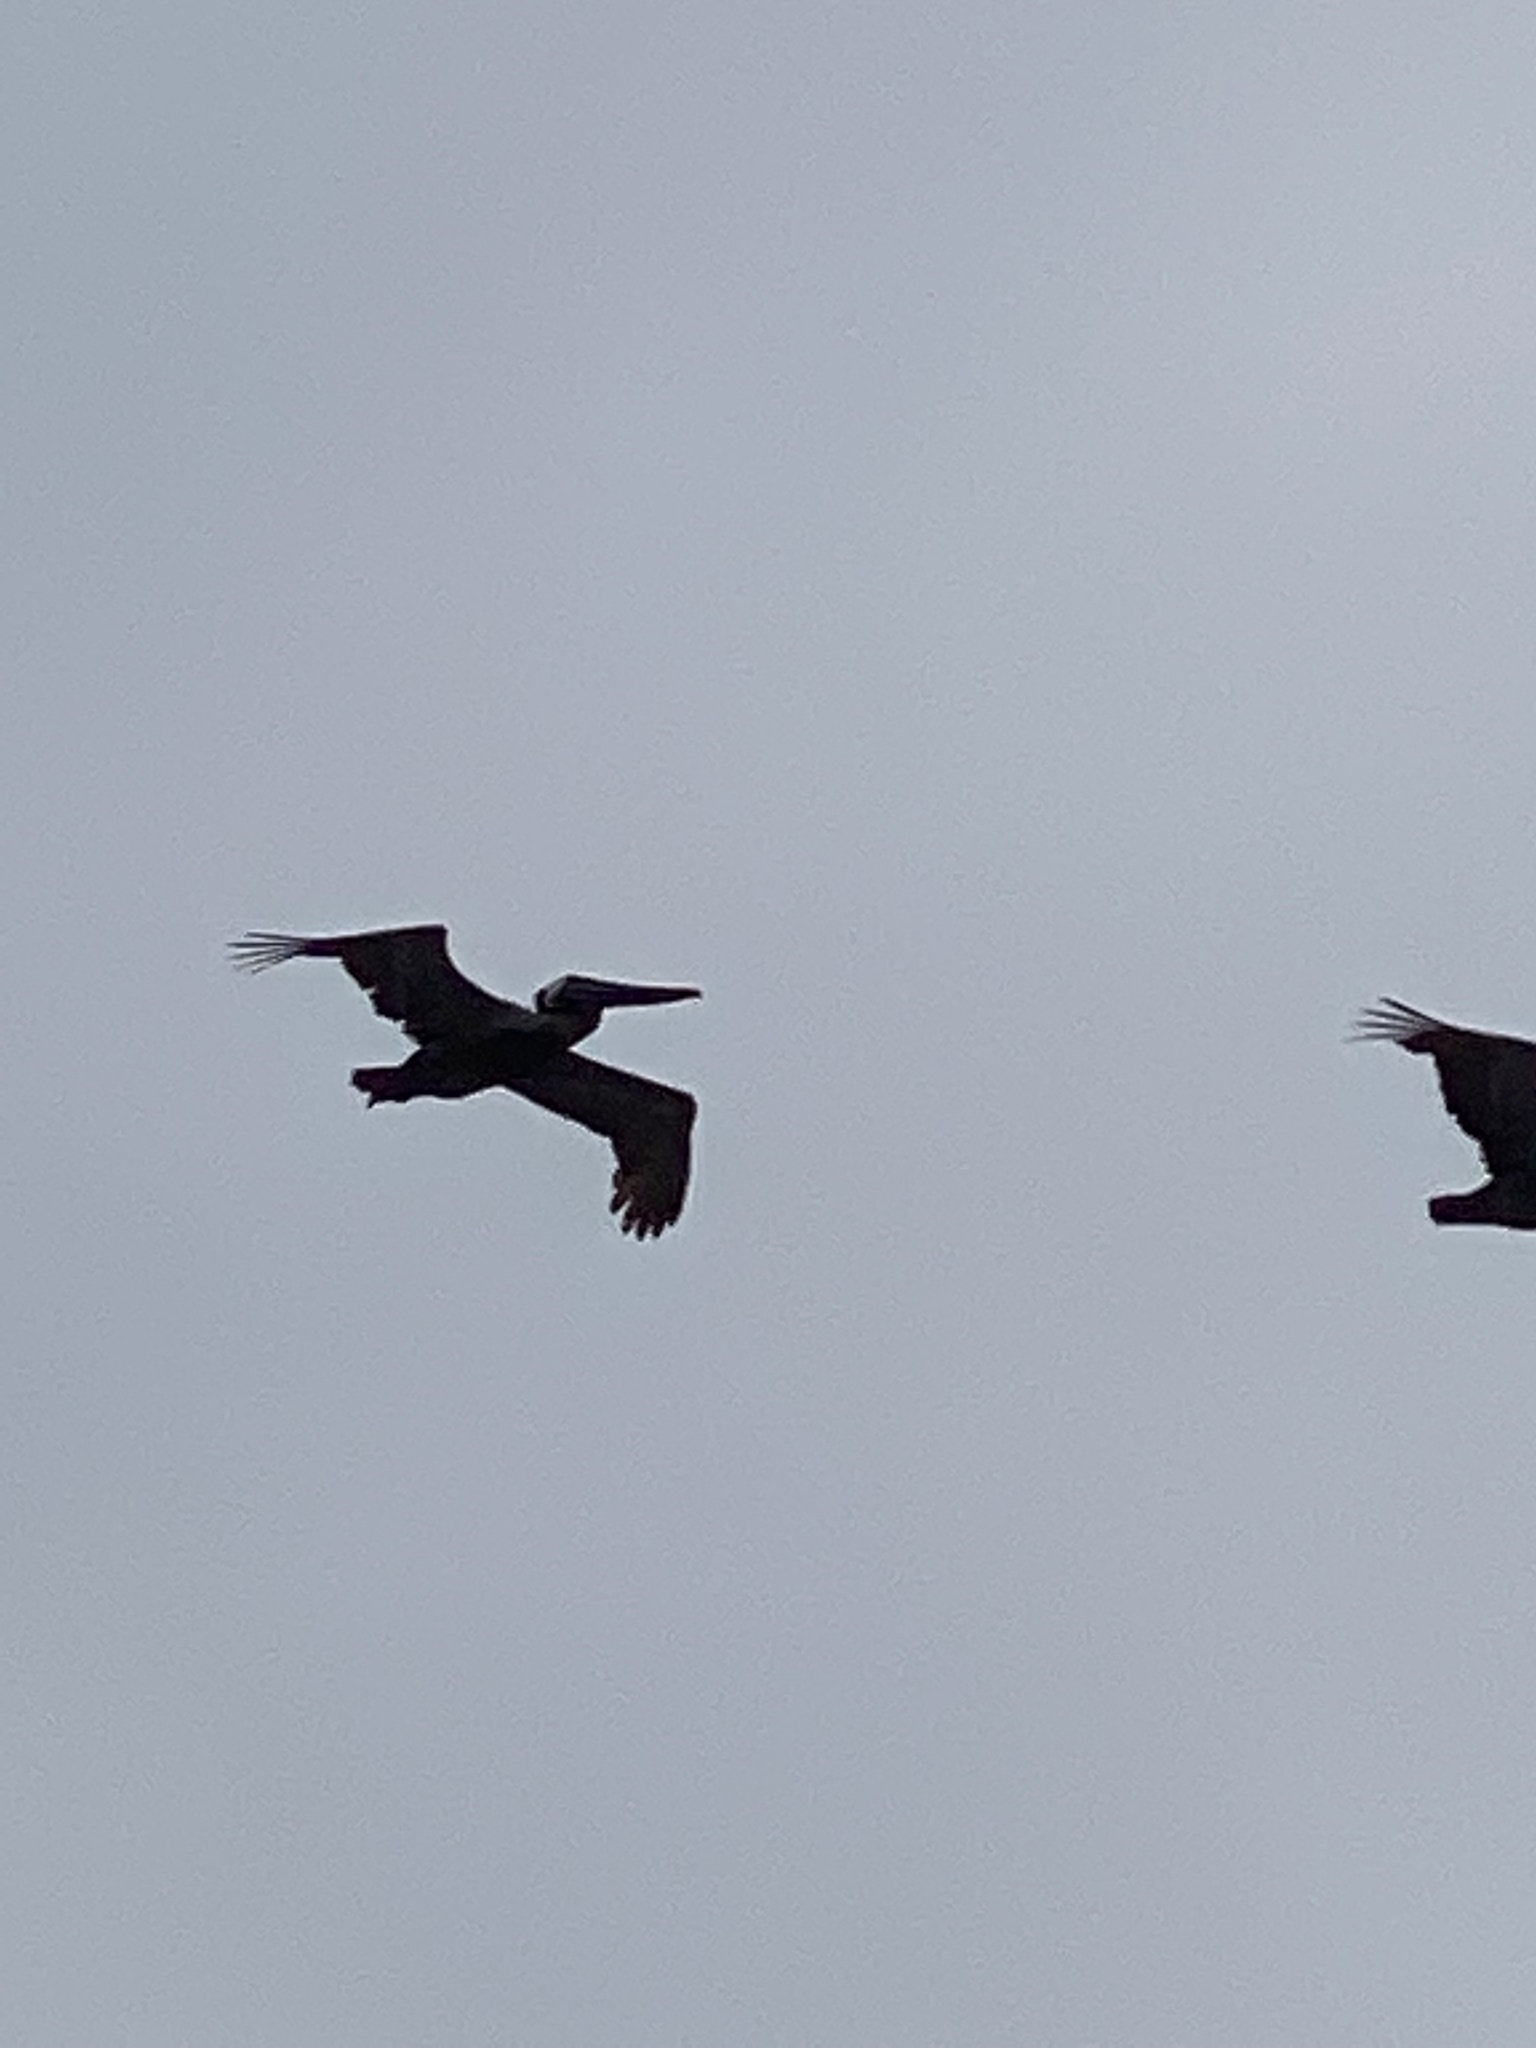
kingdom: Animalia
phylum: Chordata
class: Aves
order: Pelecaniformes
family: Pelecanidae
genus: Pelecanus
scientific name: Pelecanus occidentalis
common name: Brown pelican
